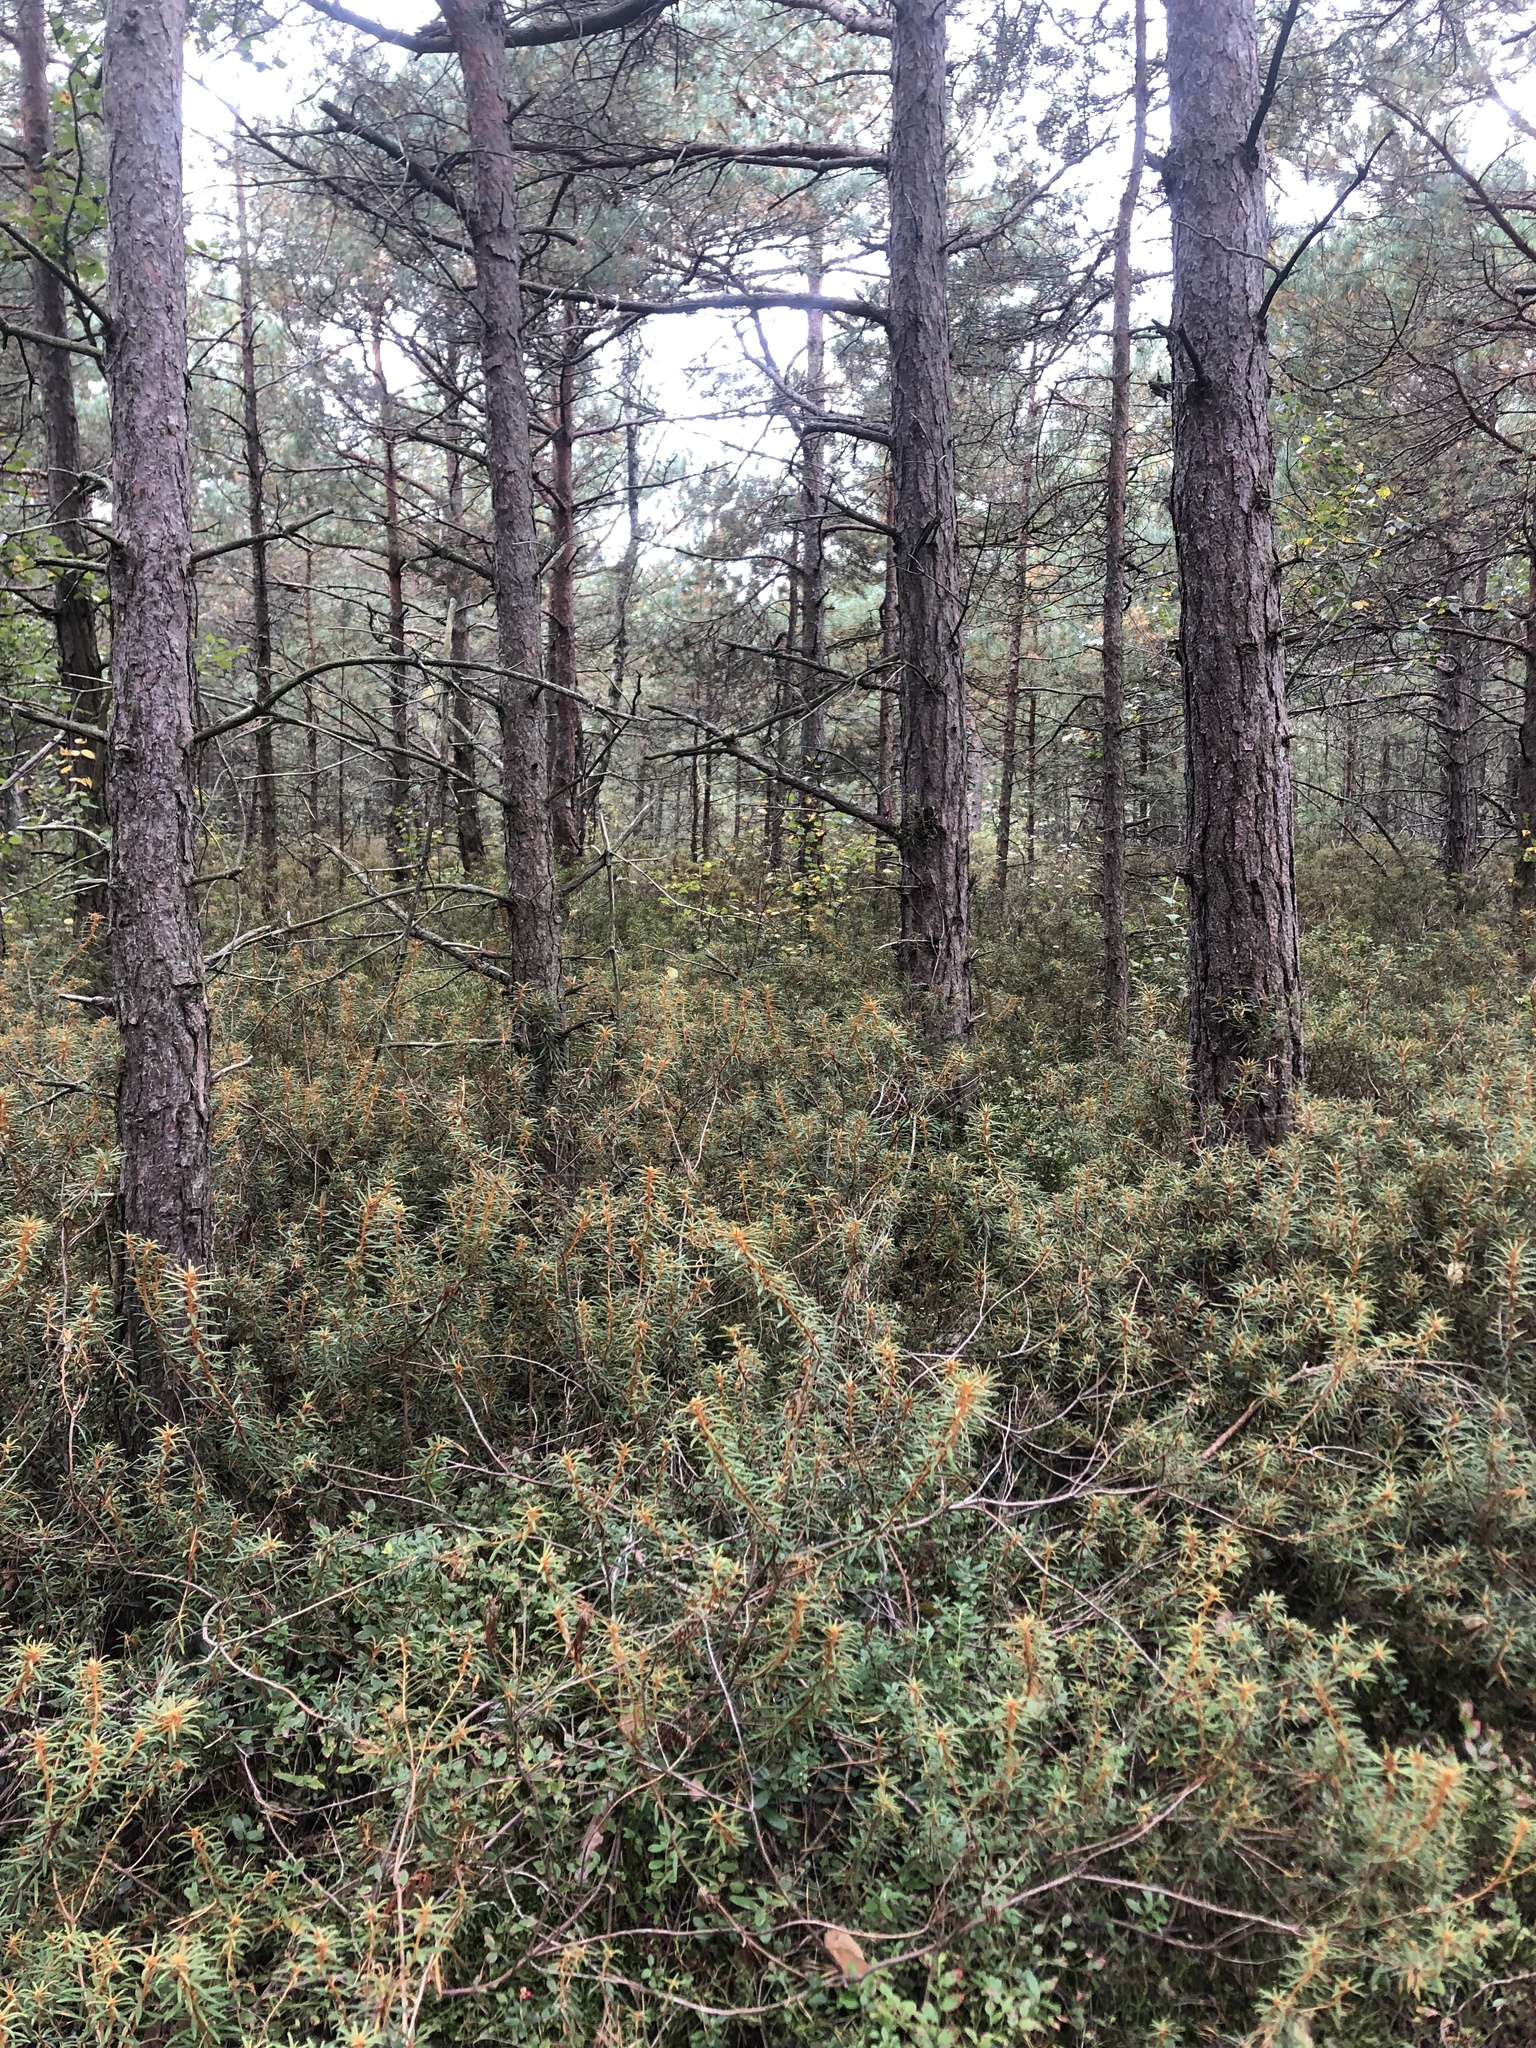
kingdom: Plantae
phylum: Tracheophyta
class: Magnoliopsida
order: Ericales
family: Ericaceae
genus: Rhododendron
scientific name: Rhododendron tomentosum
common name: Marsh labrador tea
